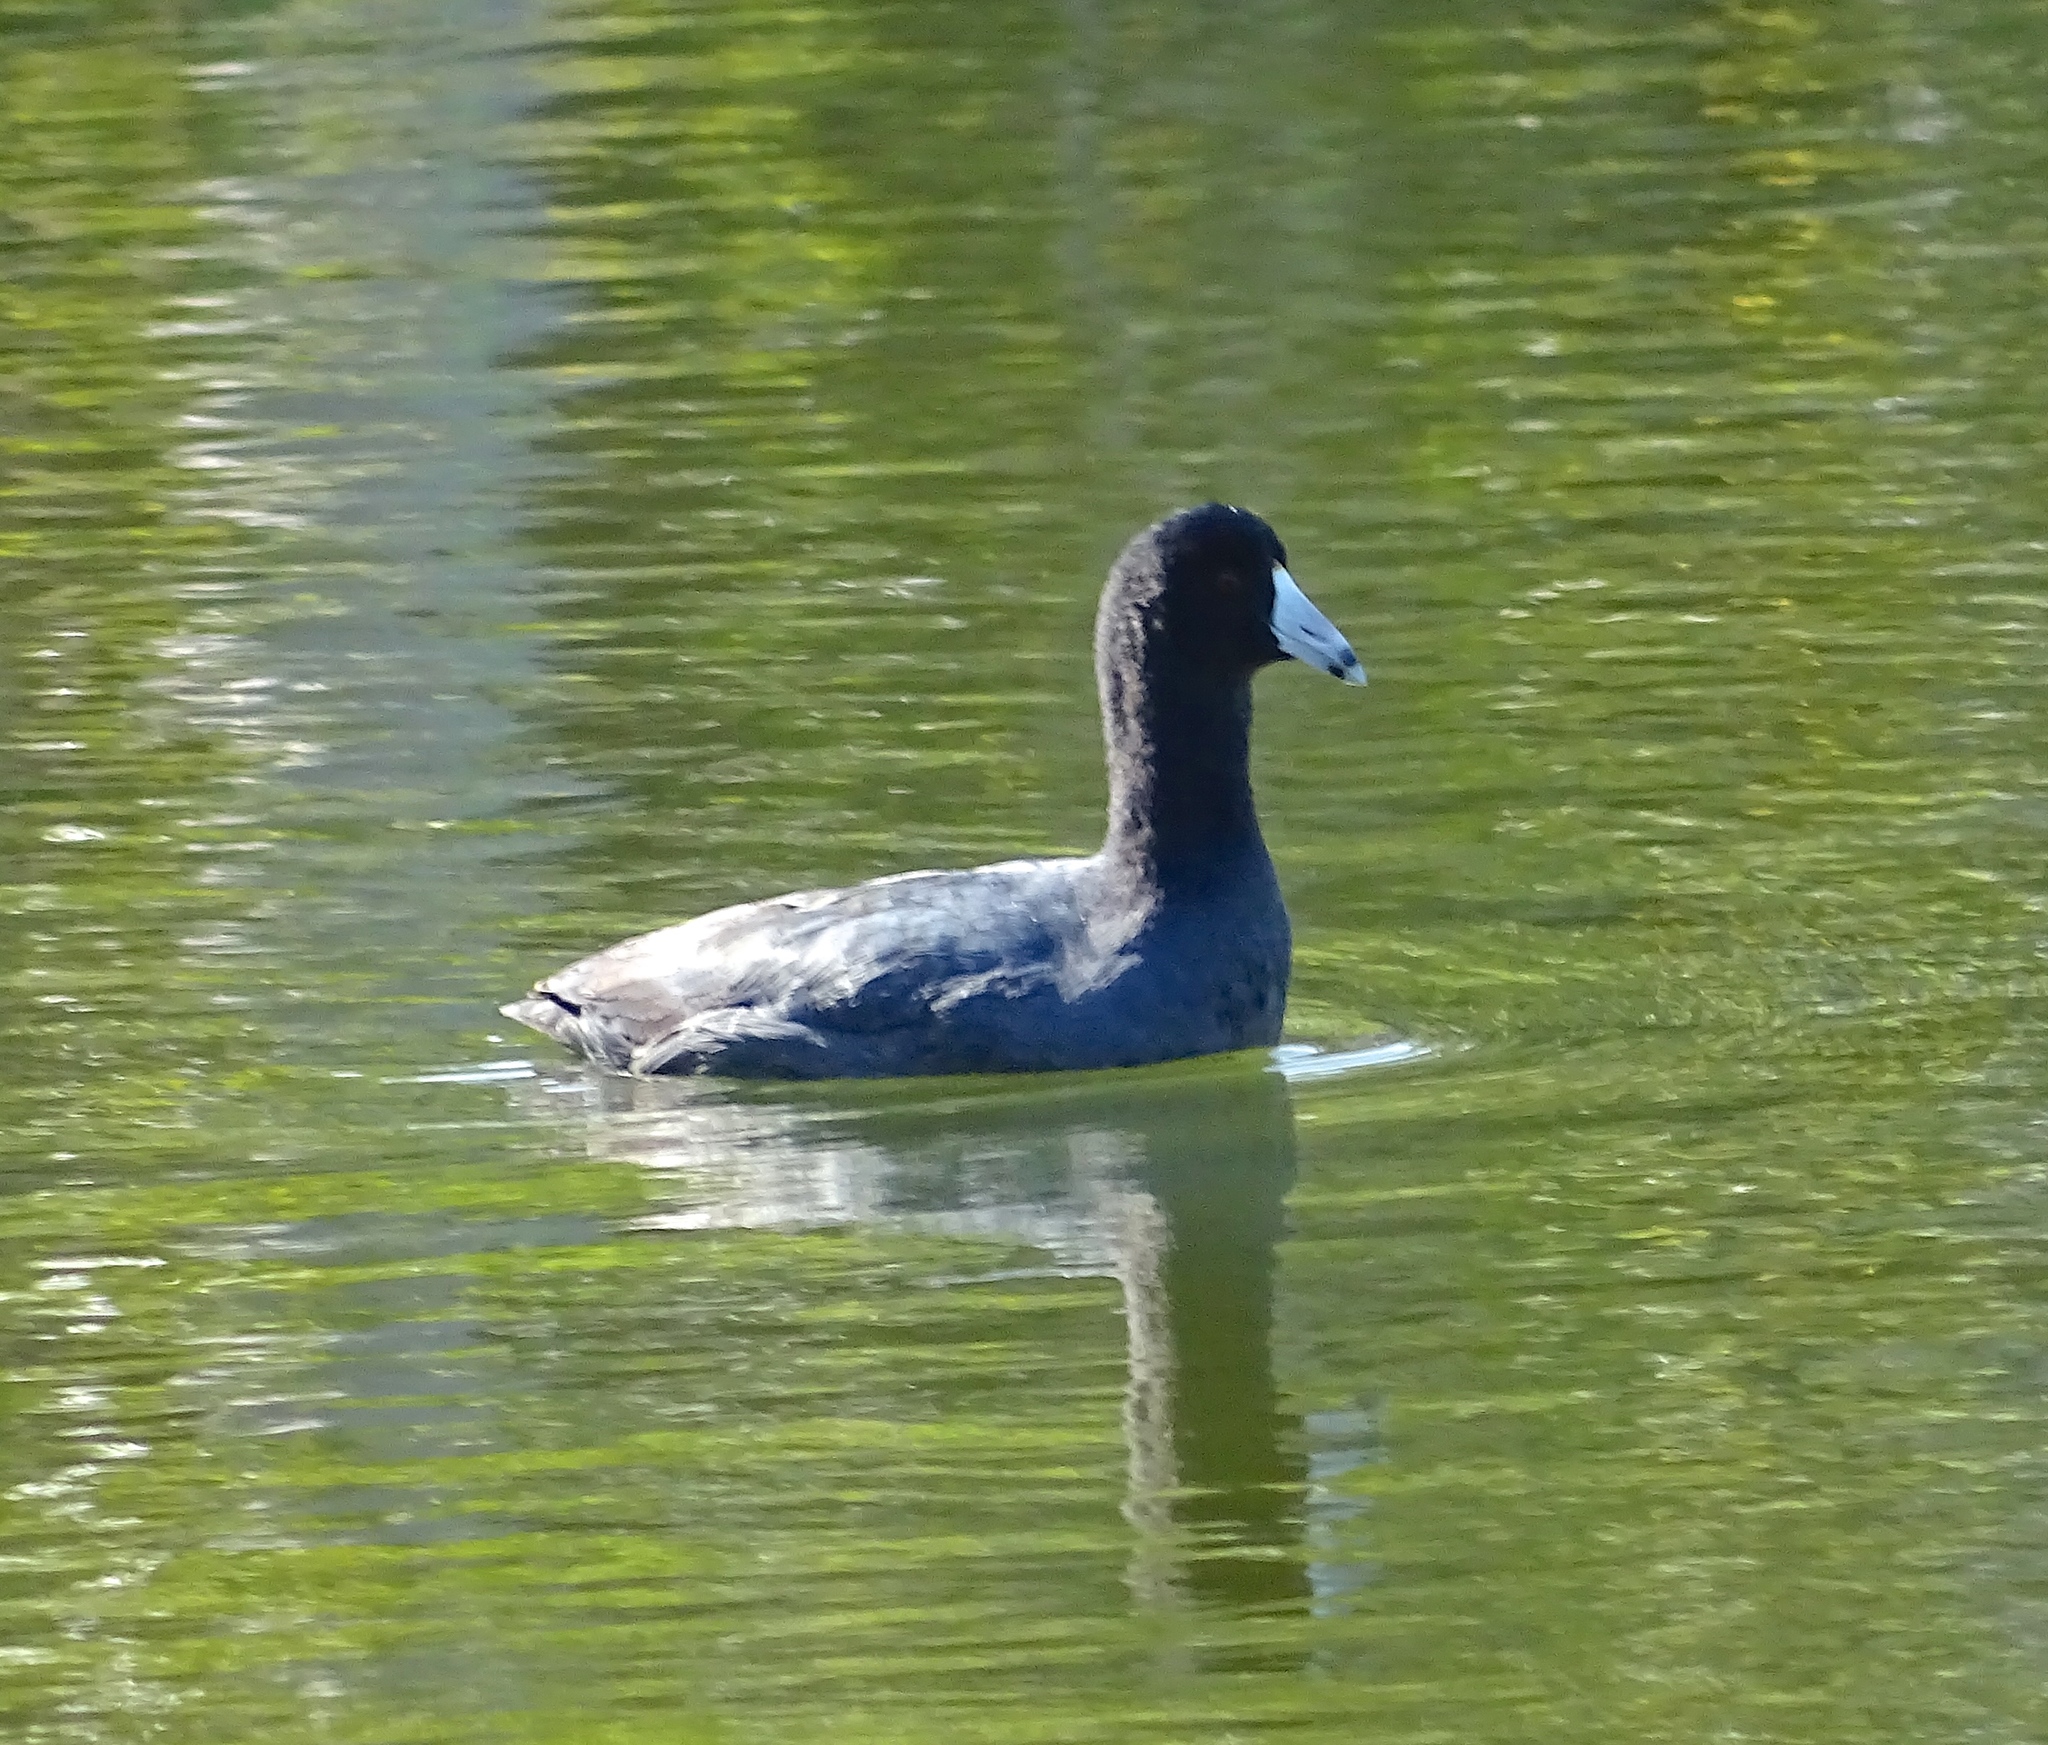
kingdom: Animalia
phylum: Chordata
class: Aves
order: Gruiformes
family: Rallidae
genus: Fulica
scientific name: Fulica americana
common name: American coot
